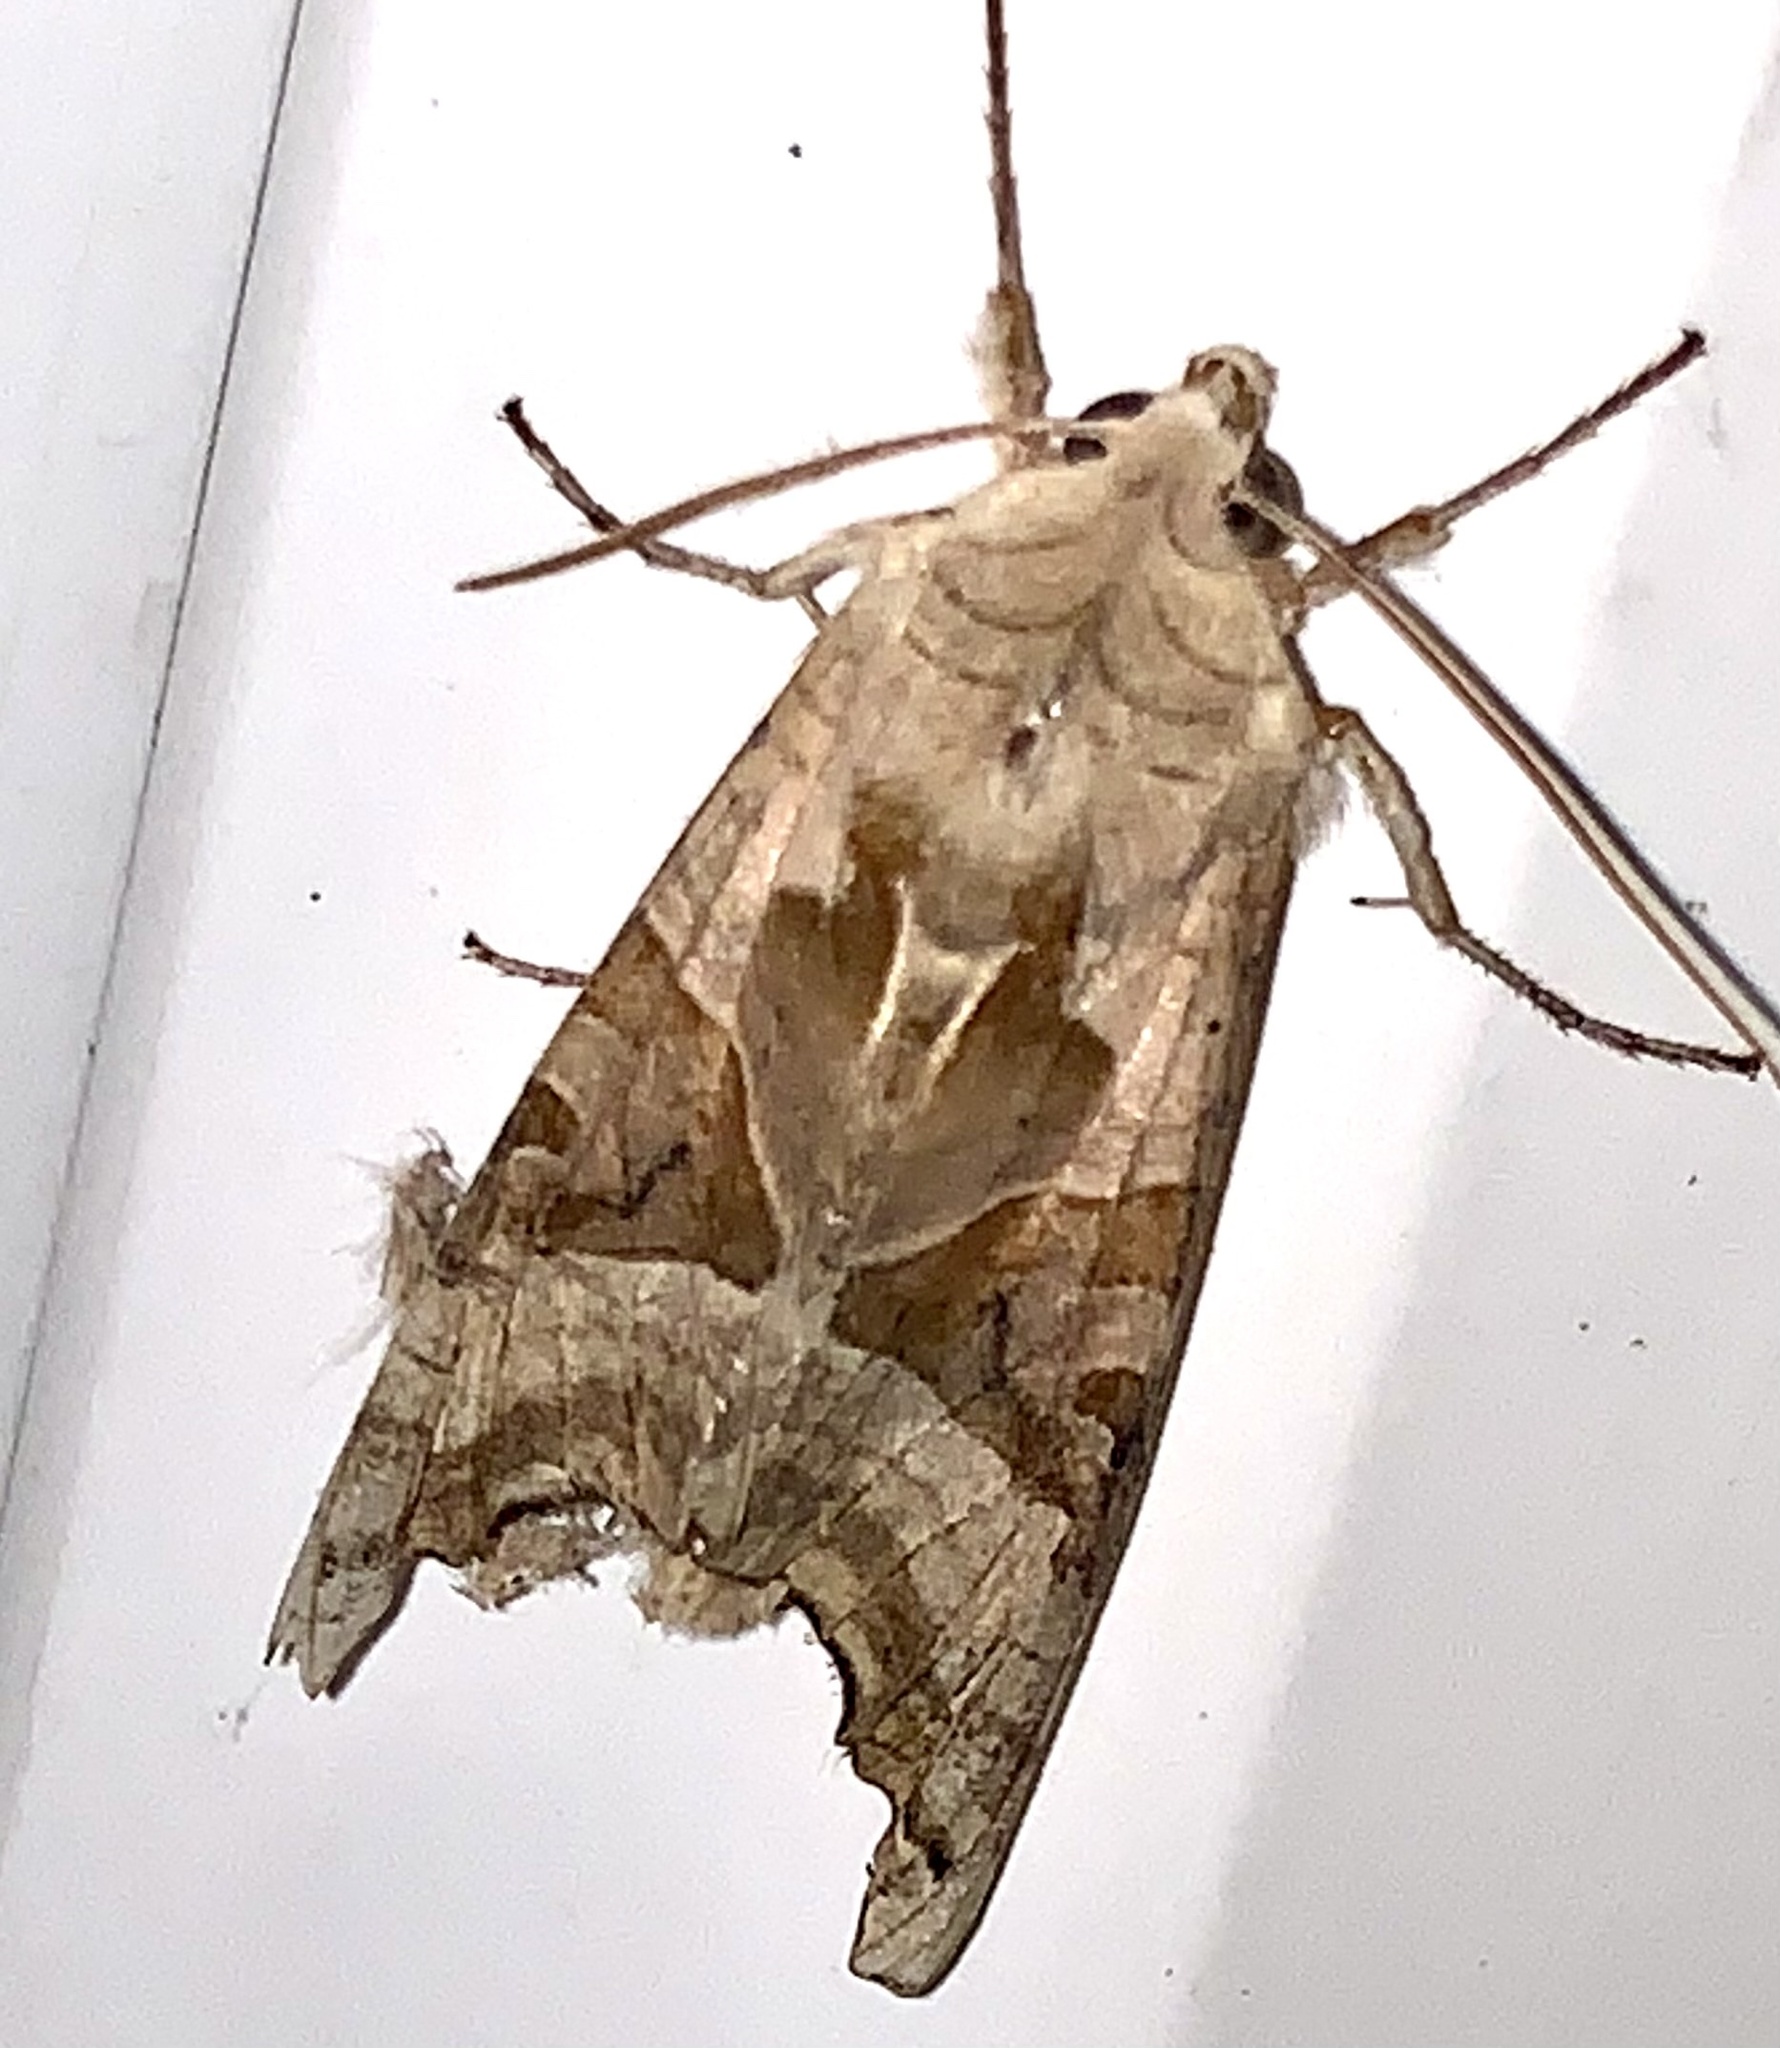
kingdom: Animalia
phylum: Arthropoda
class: Insecta
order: Lepidoptera
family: Noctuidae
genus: Phlogophora
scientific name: Phlogophora meticulosa
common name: Angle shades
